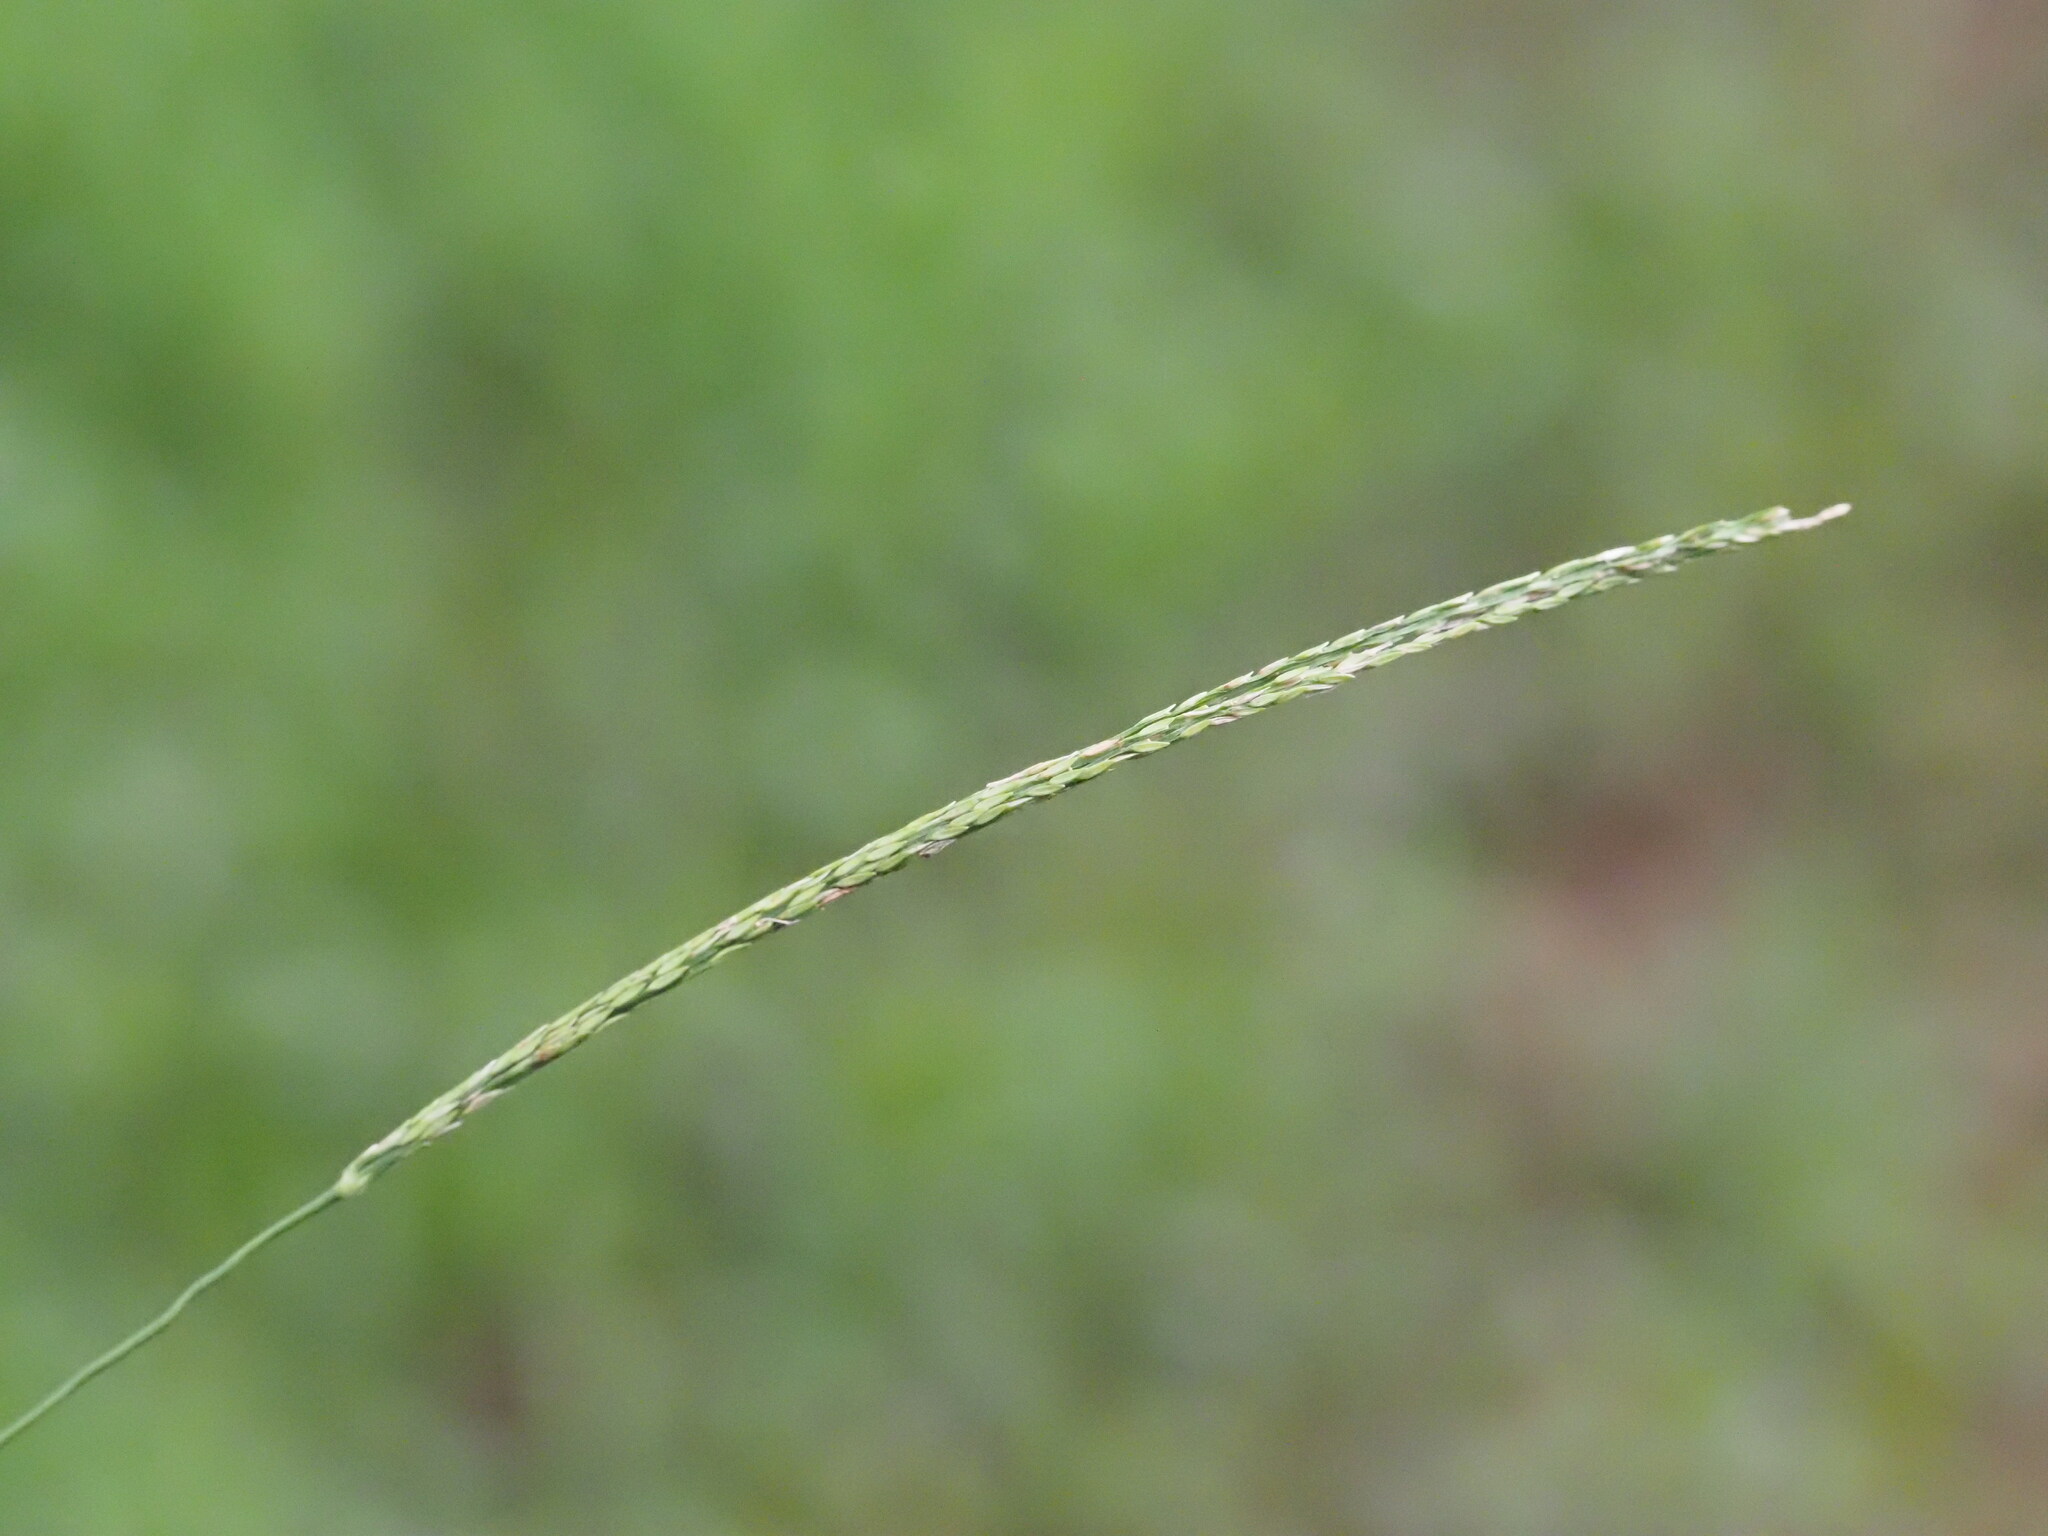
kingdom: Plantae
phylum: Tracheophyta
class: Liliopsida
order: Poales
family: Poaceae
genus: Digitaria
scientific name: Digitaria setigera
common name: East indian crabgrass
